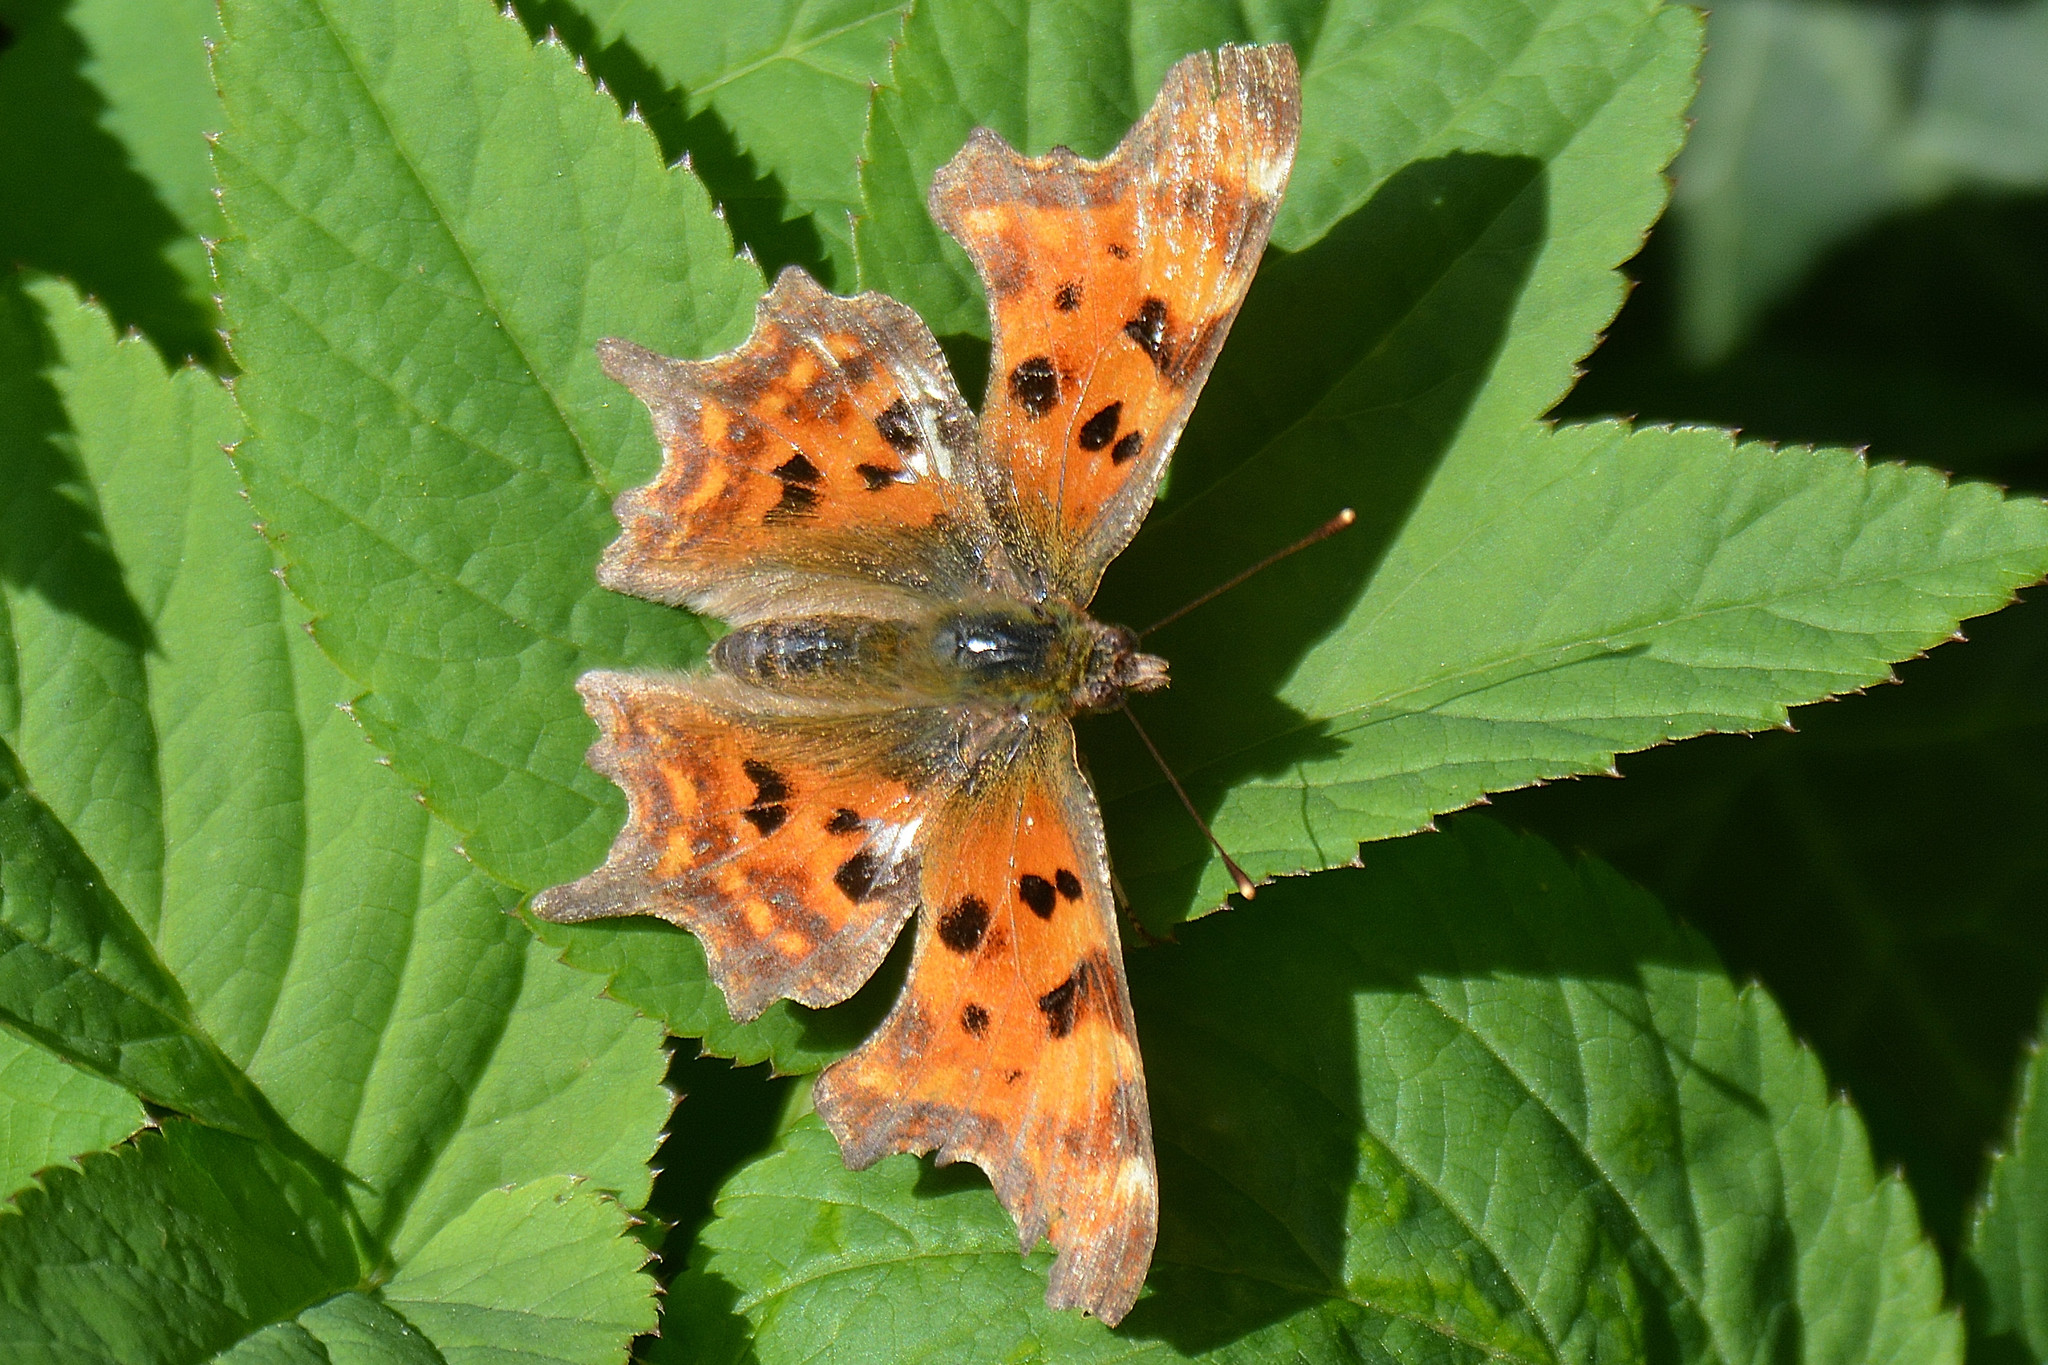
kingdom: Animalia
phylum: Arthropoda
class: Insecta
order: Lepidoptera
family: Nymphalidae
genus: Polygonia
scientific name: Polygonia c-album
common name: Comma
